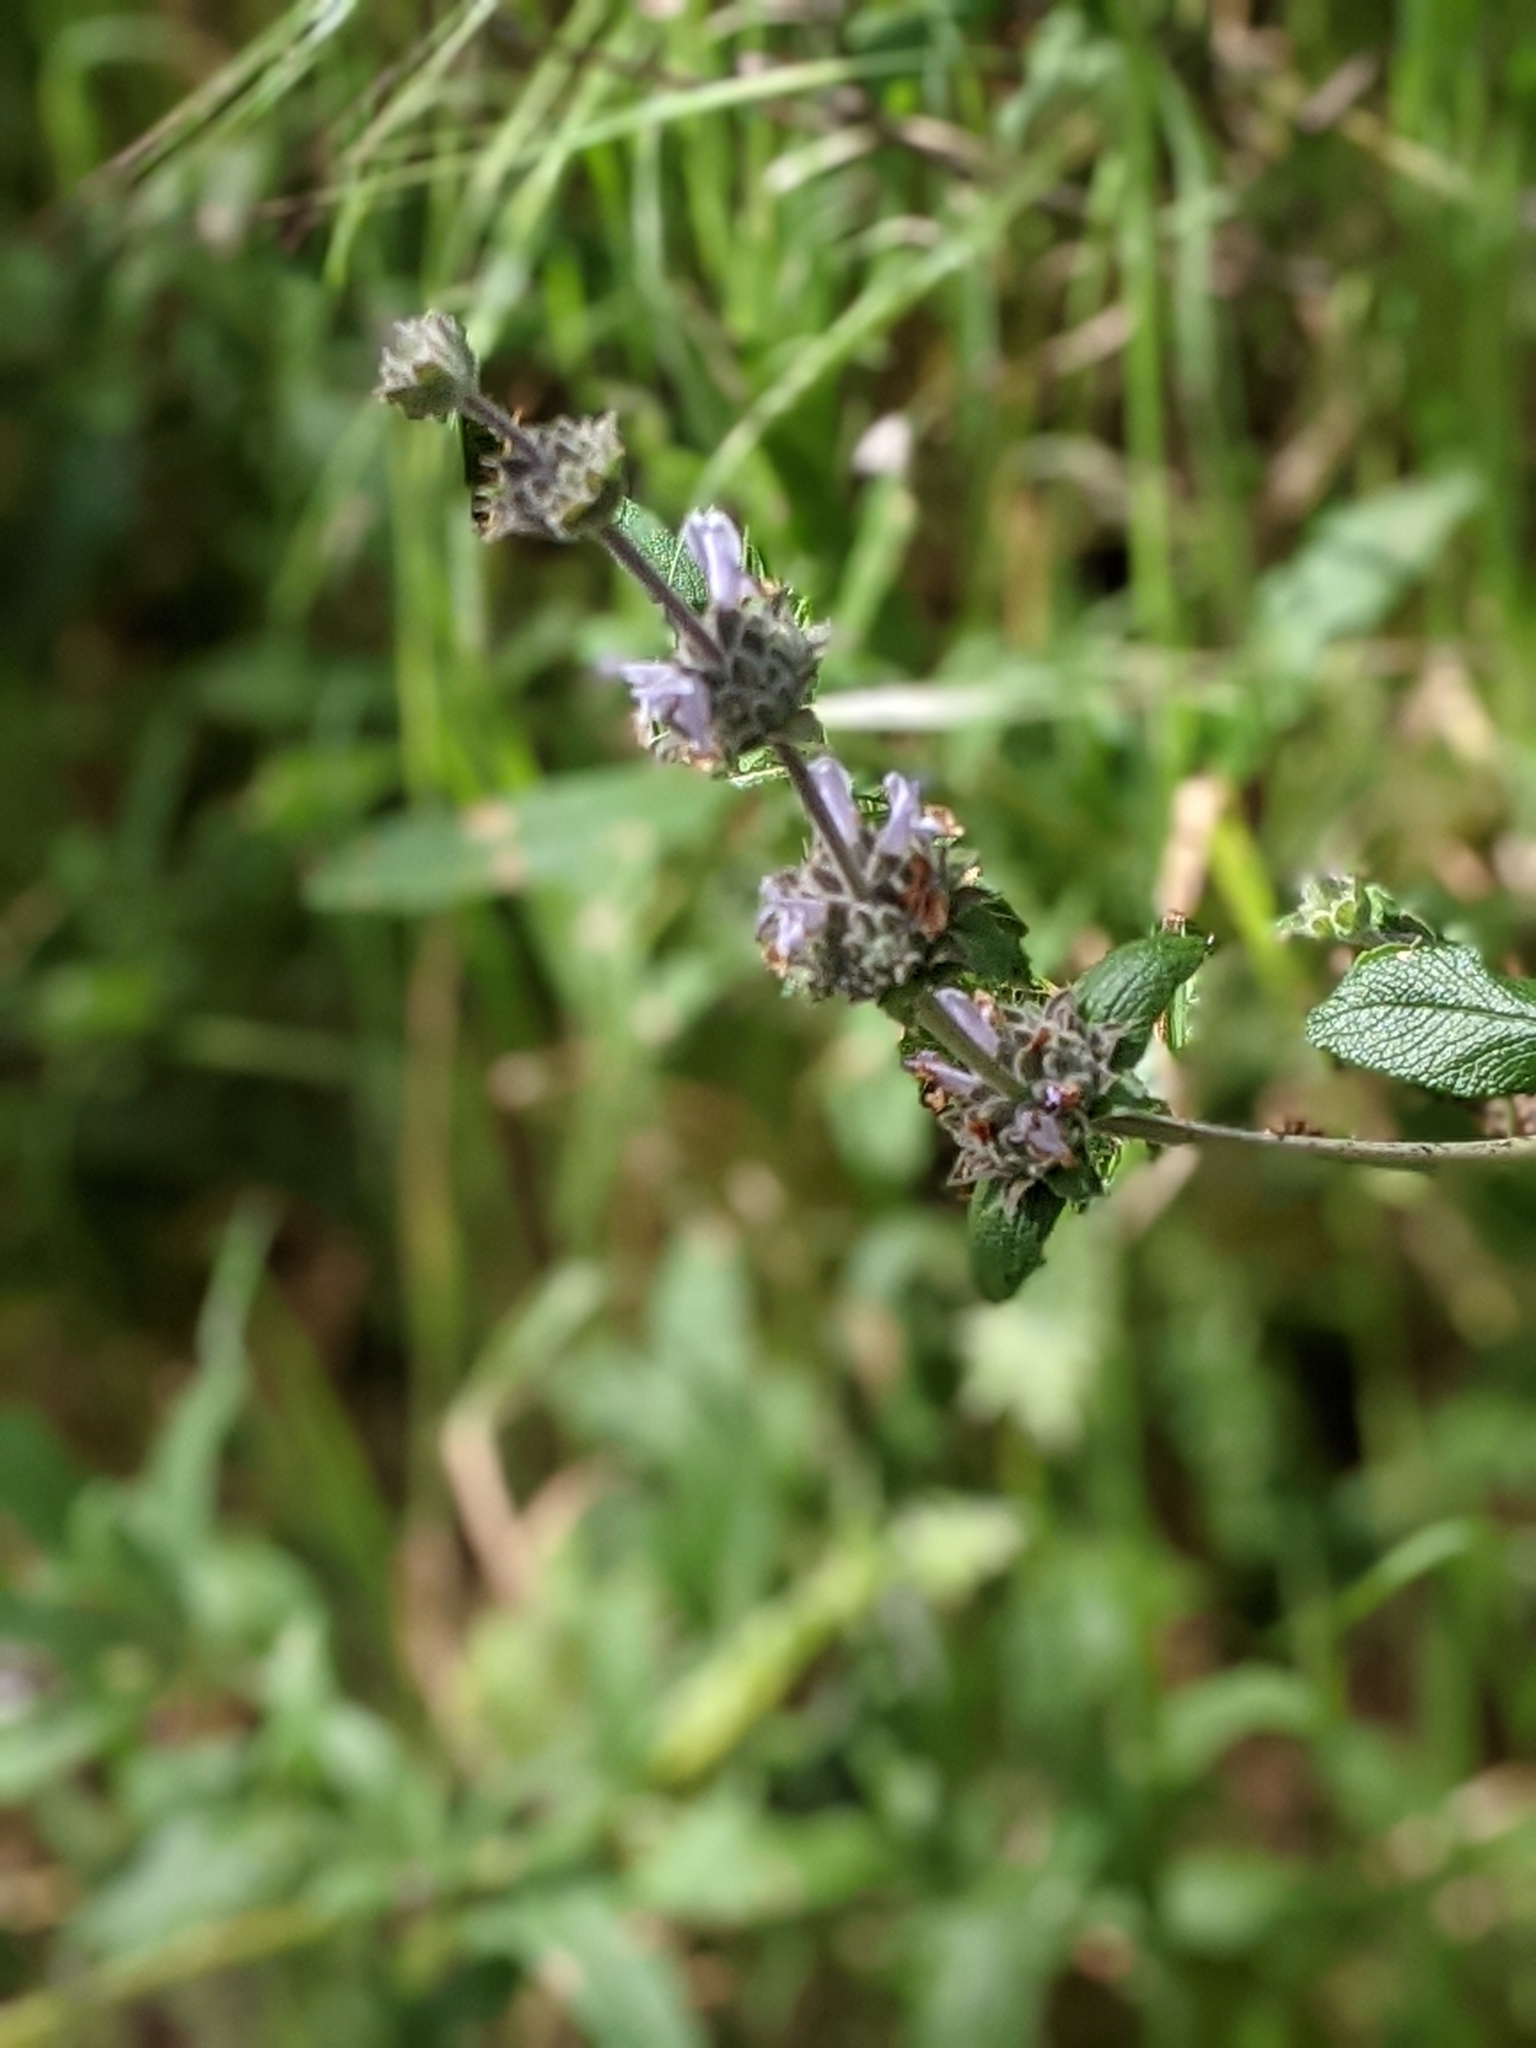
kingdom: Plantae
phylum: Tracheophyta
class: Magnoliopsida
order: Lamiales
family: Lamiaceae
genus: Salvia
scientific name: Salvia mellifera
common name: Black sage
